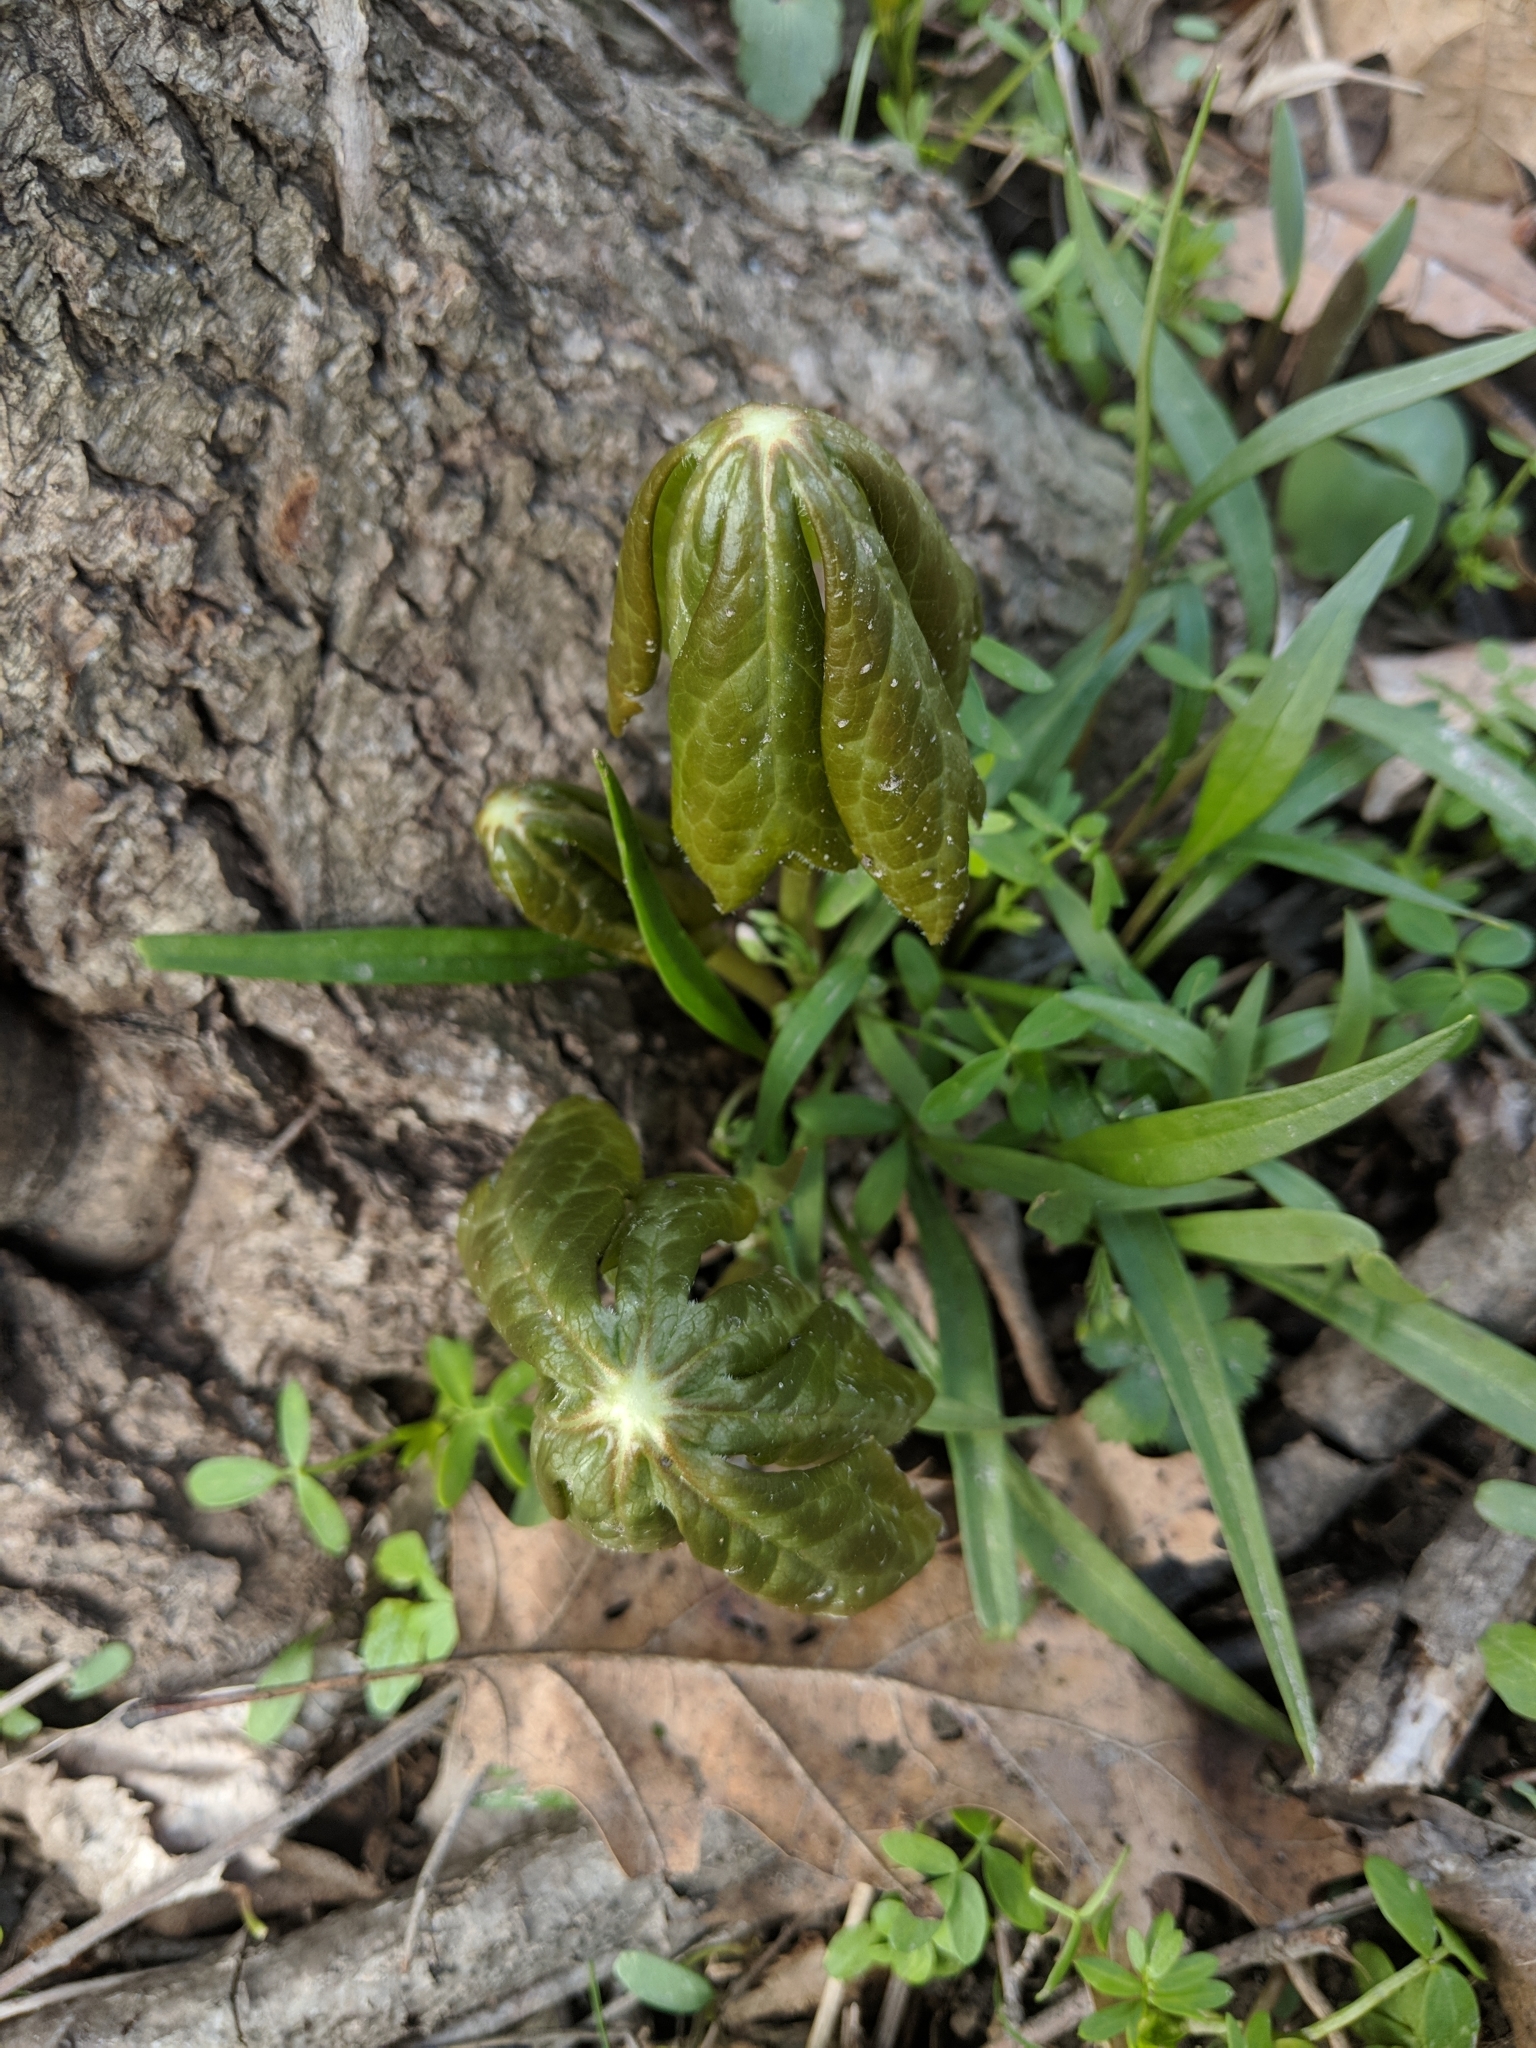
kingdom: Plantae
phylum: Tracheophyta
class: Magnoliopsida
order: Ranunculales
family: Berberidaceae
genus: Podophyllum
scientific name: Podophyllum peltatum
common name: Wild mandrake
